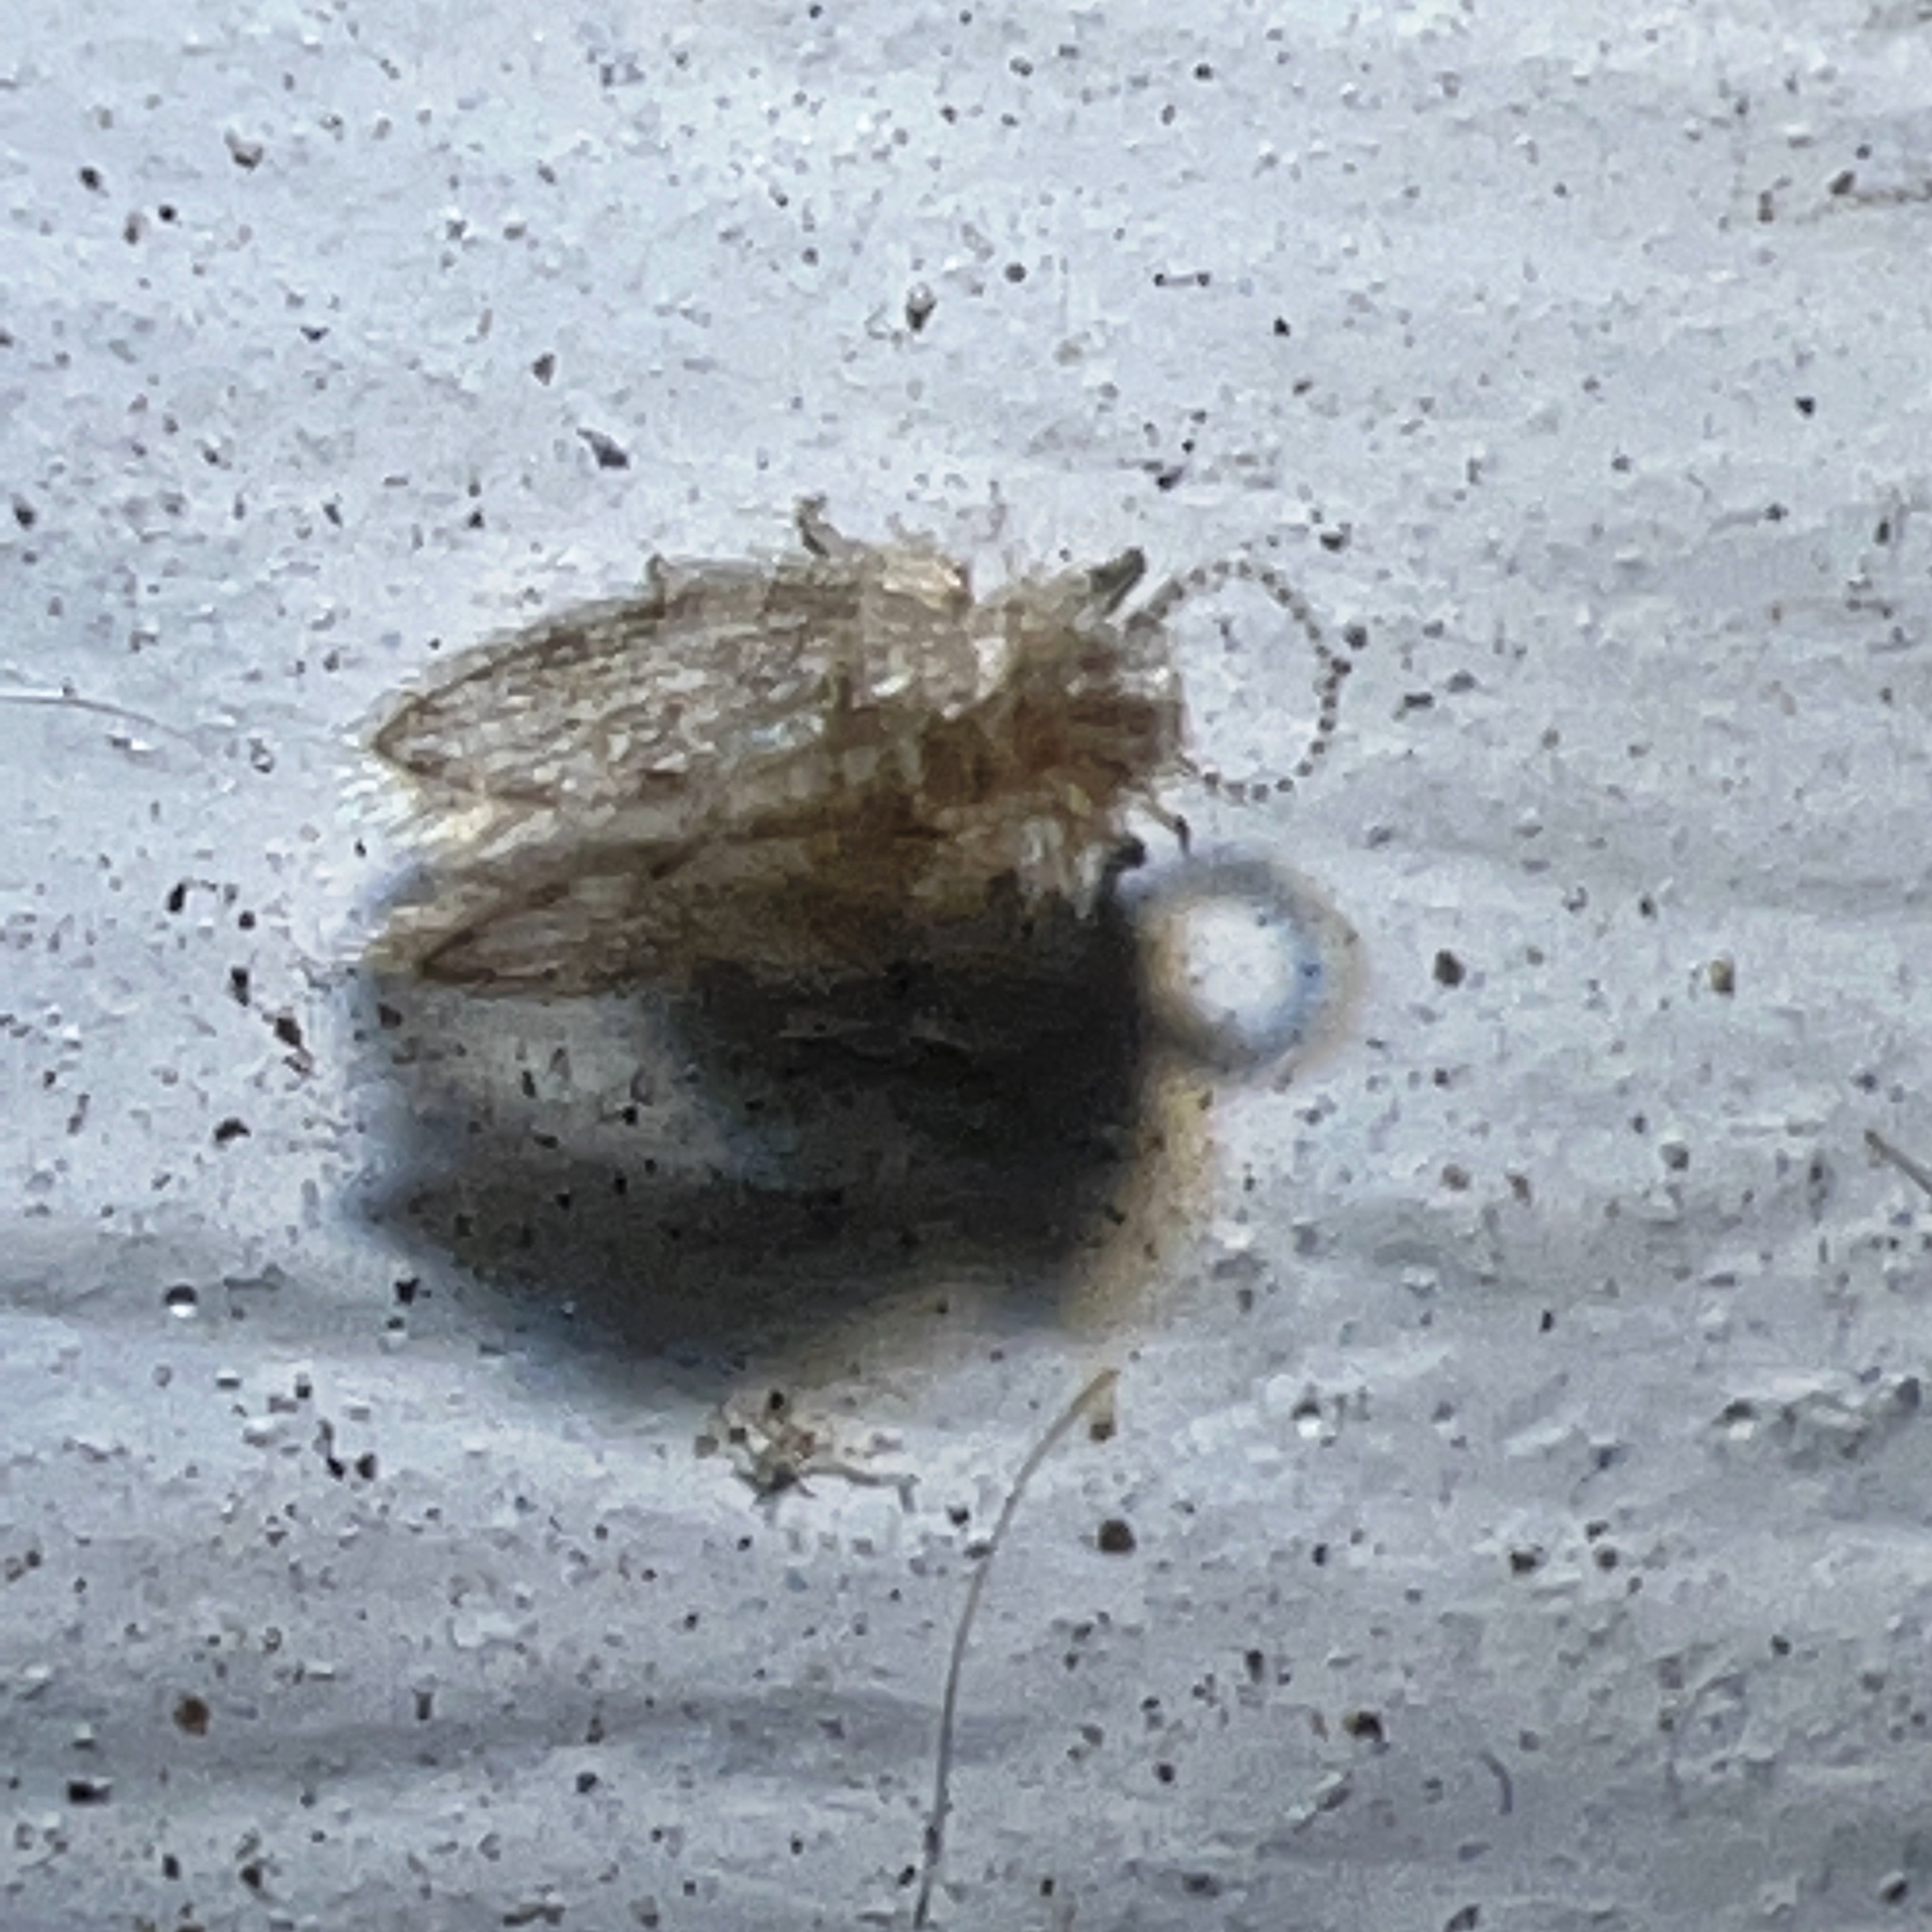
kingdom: Animalia
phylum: Arthropoda
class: Insecta
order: Diptera
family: Psychodidae
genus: Psychoda
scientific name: Psychoda alternata
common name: Moth fly
